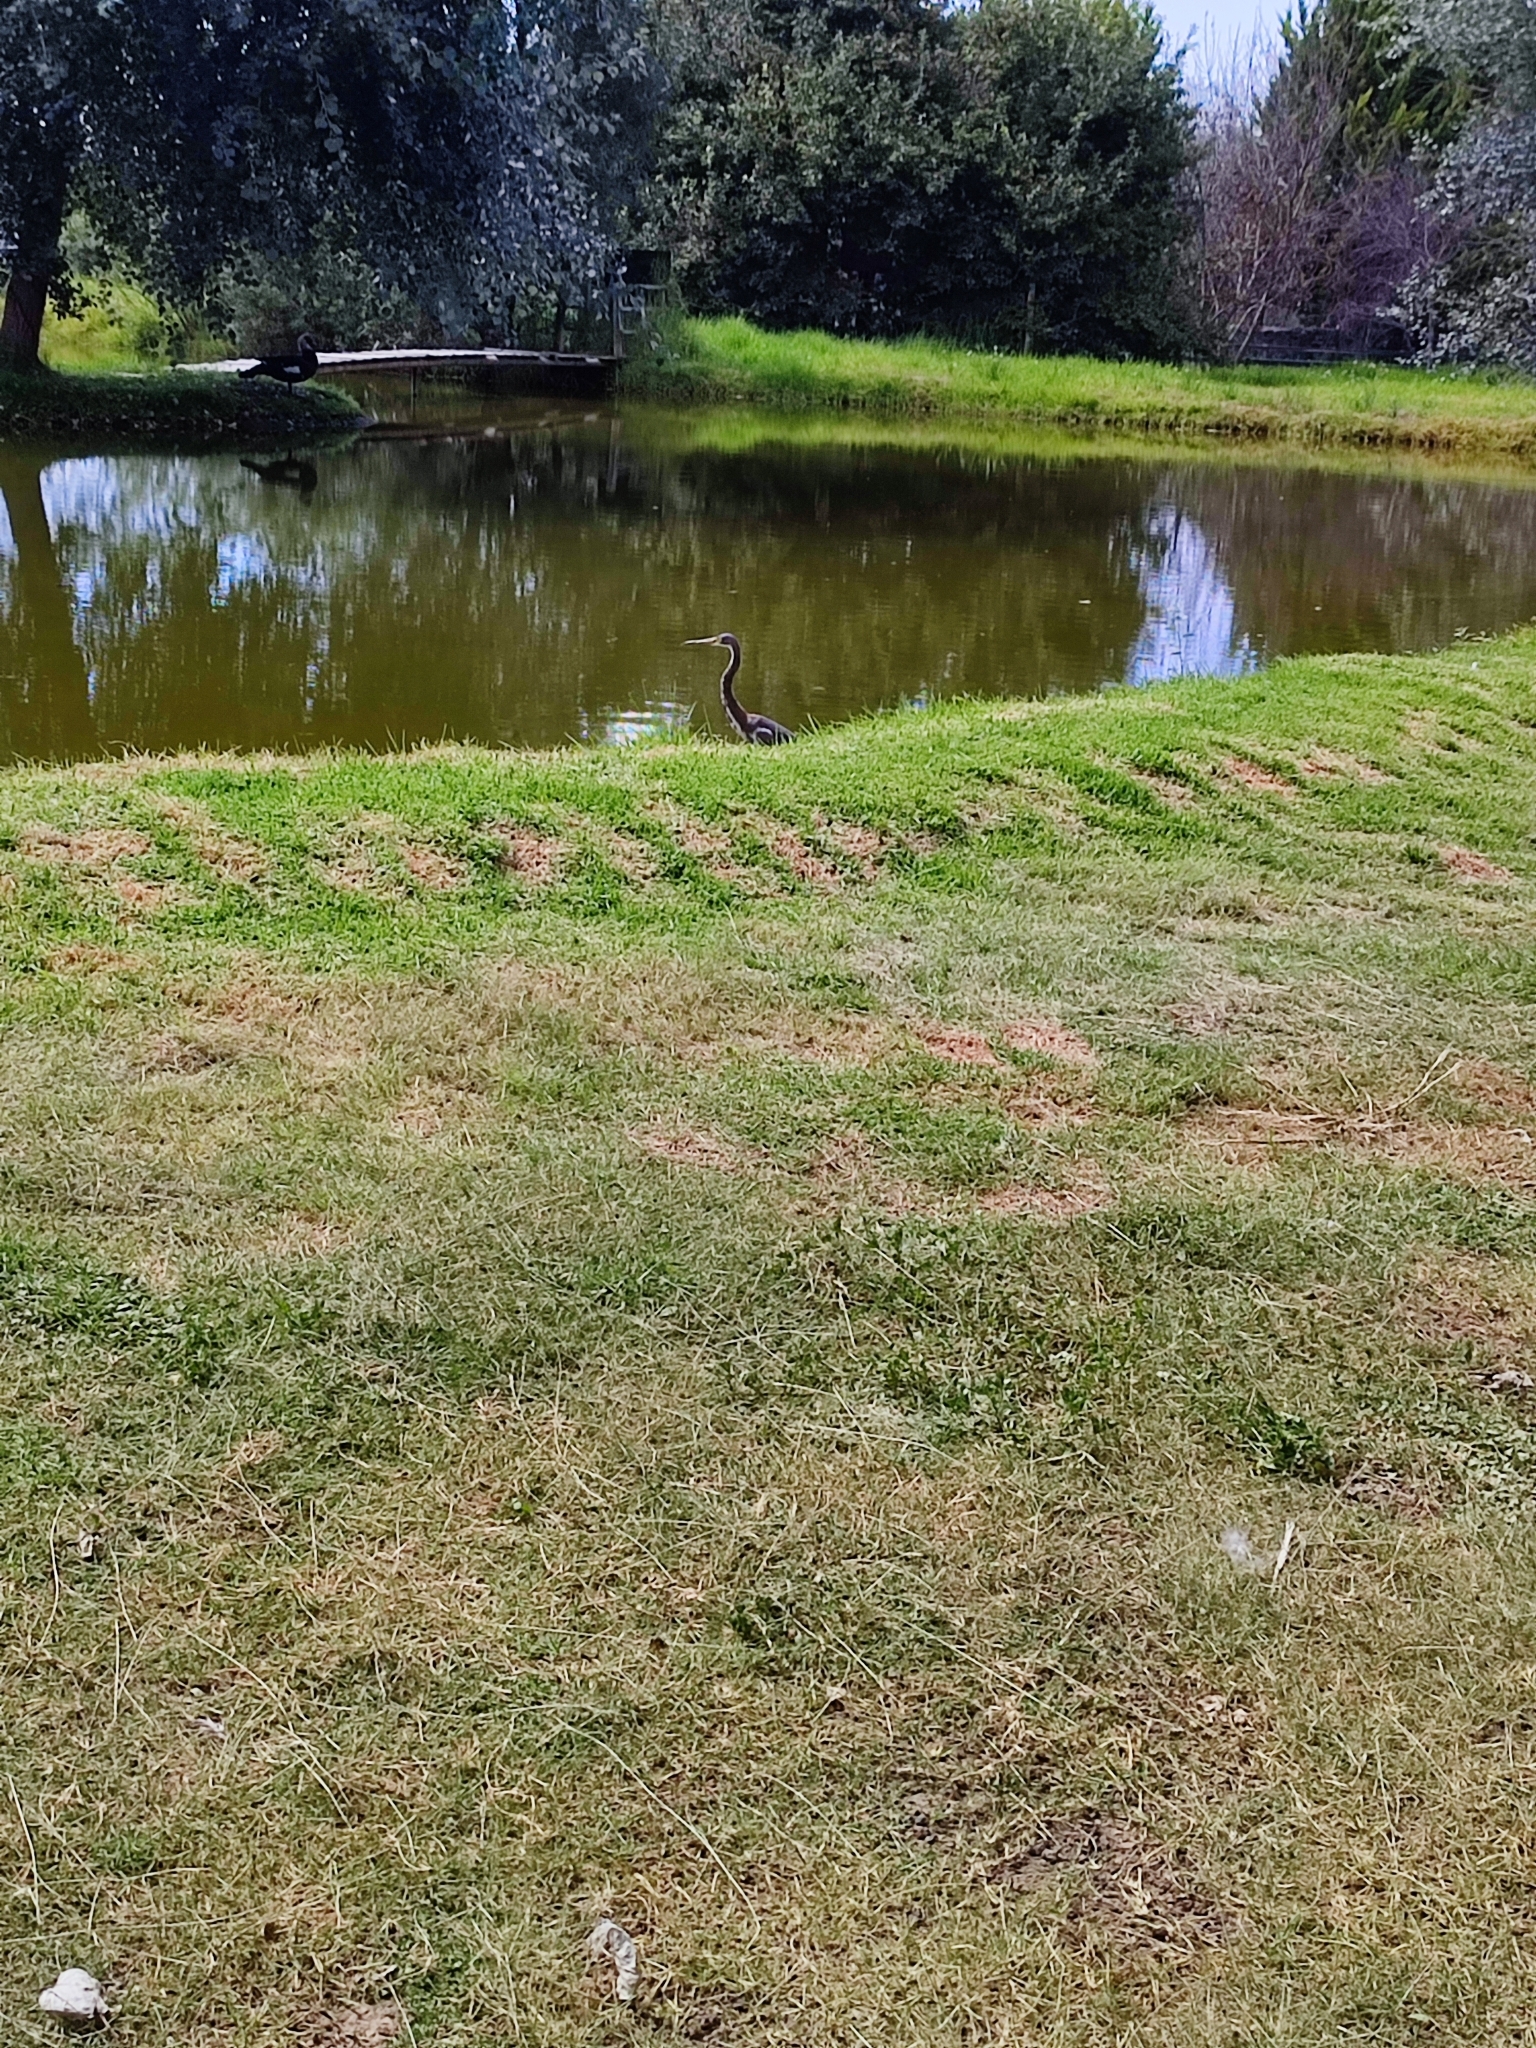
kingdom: Animalia
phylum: Chordata
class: Aves
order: Pelecaniformes
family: Ardeidae
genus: Egretta
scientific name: Egretta tricolor
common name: Tricolored heron
